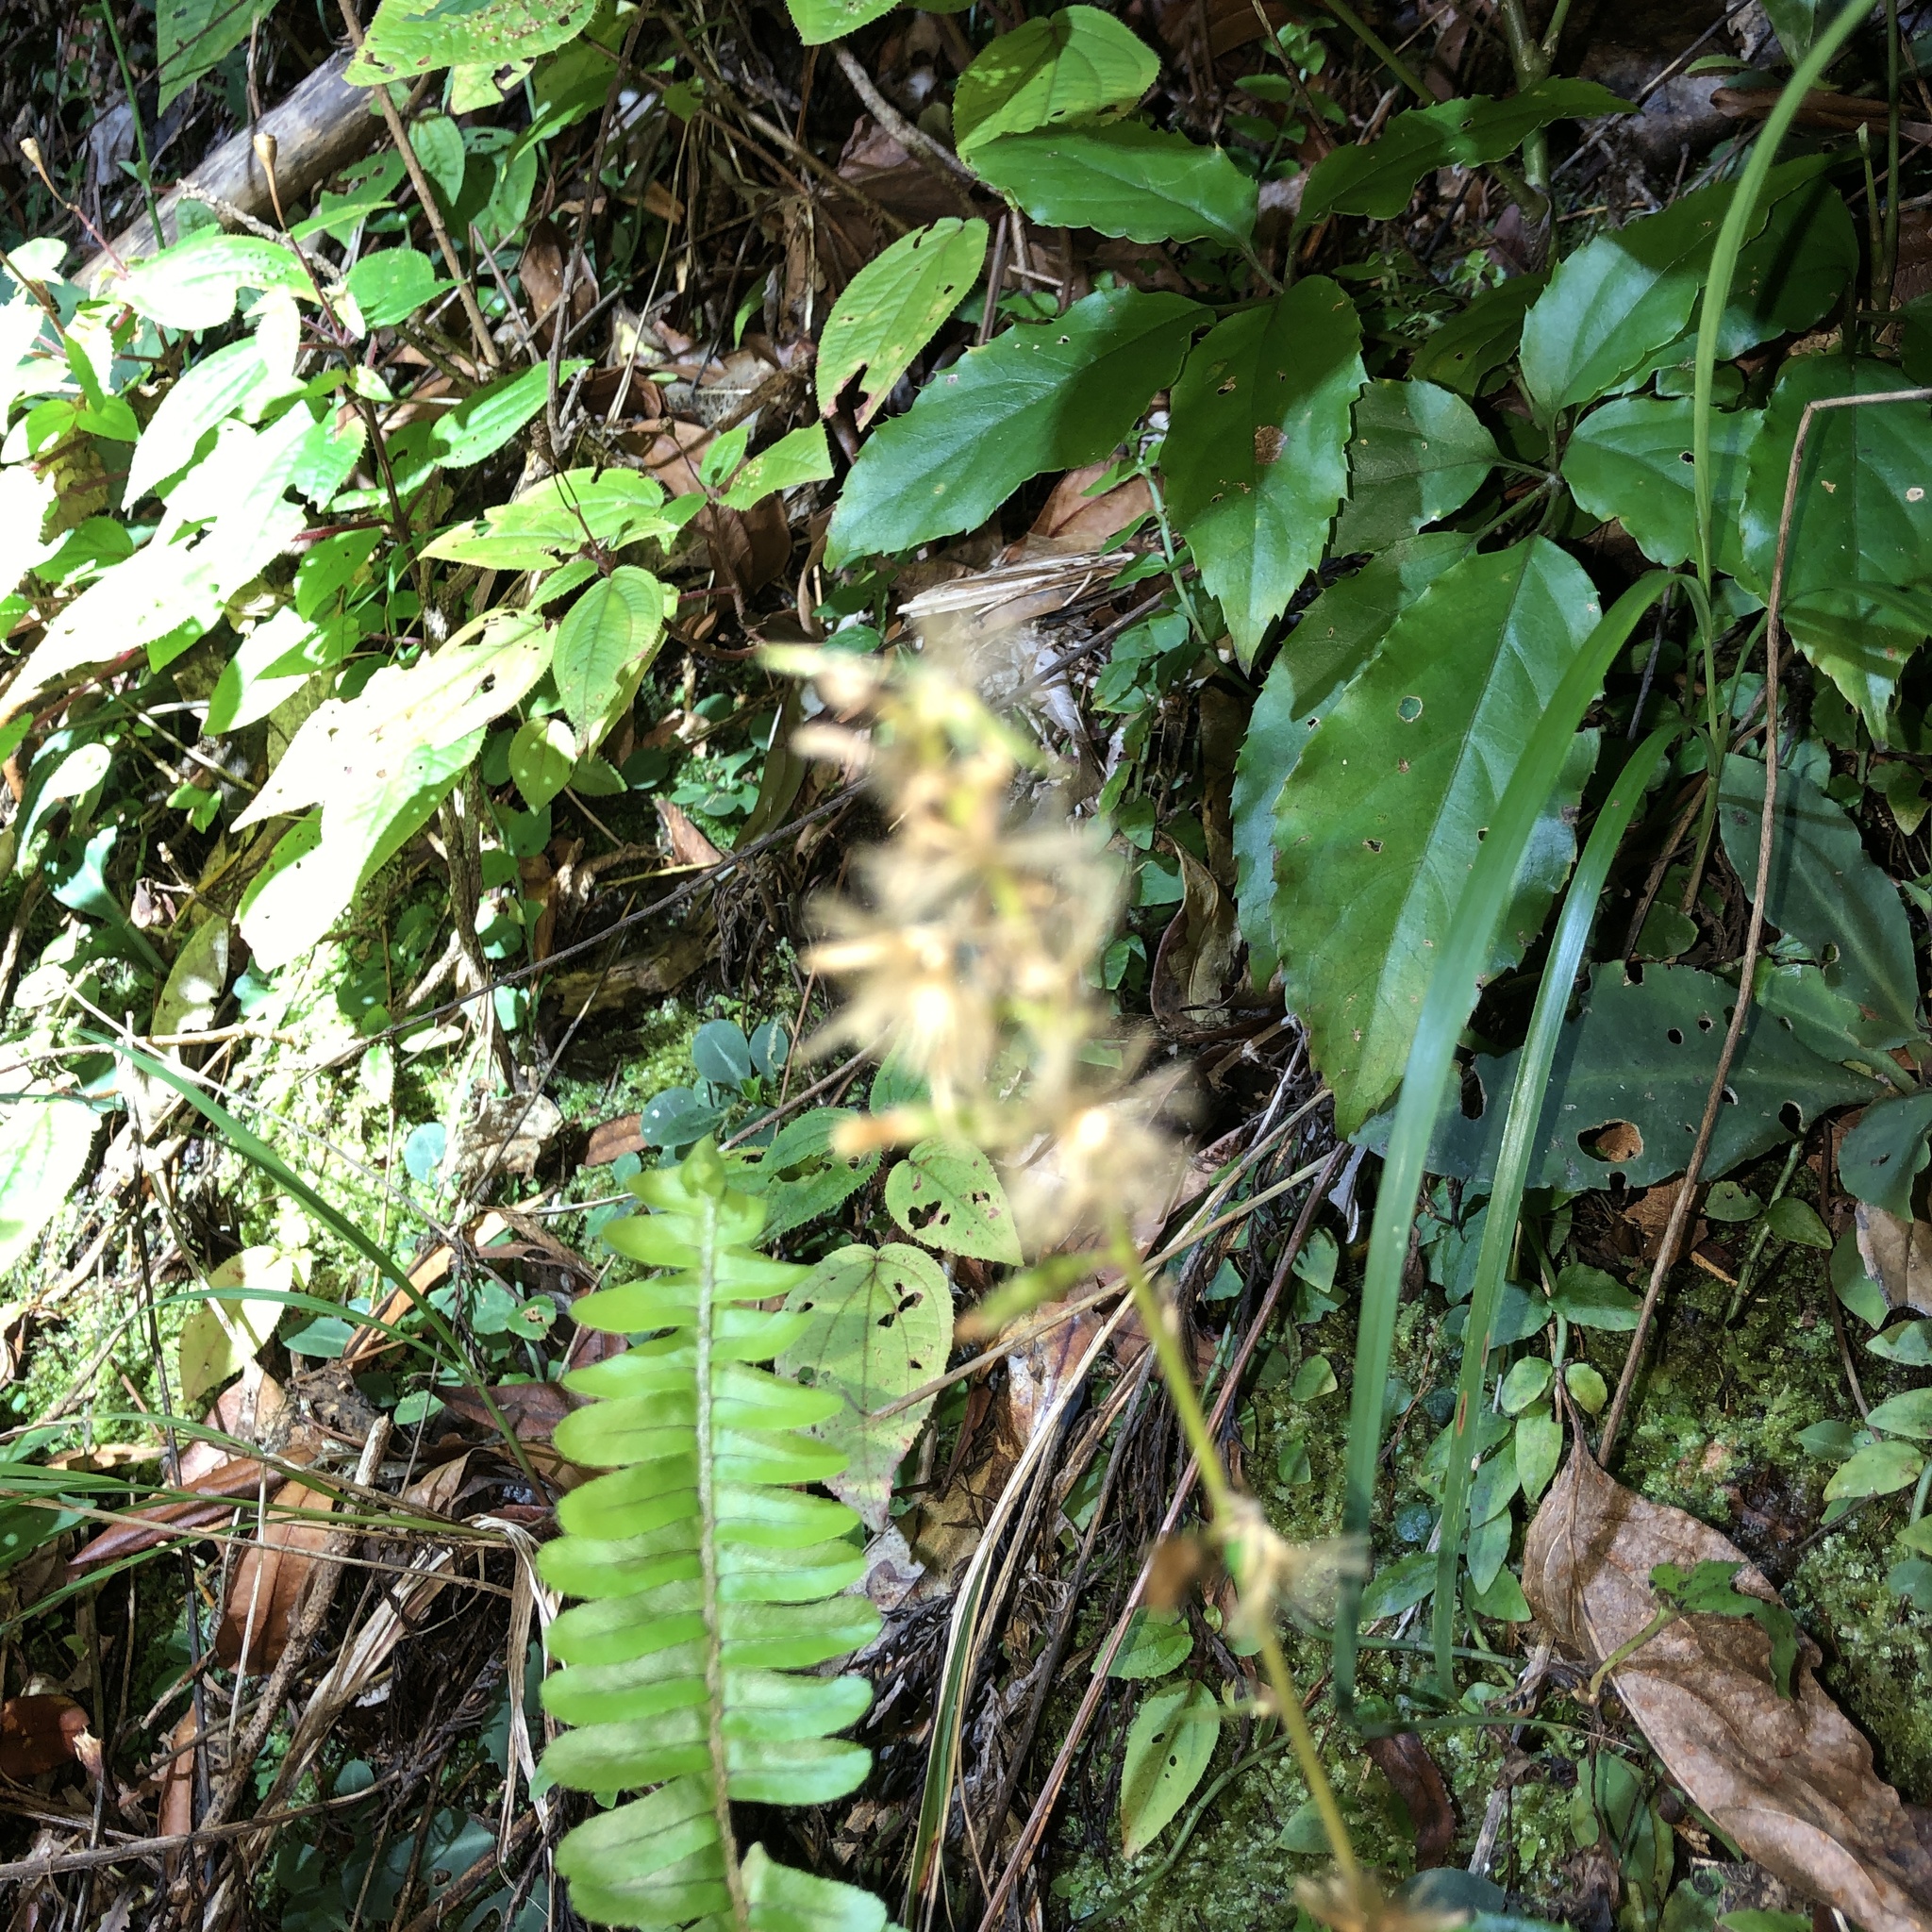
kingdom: Plantae
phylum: Tracheophyta
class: Magnoliopsida
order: Asterales
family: Asteraceae
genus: Ainsliaea
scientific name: Ainsliaea macroclinidioides
